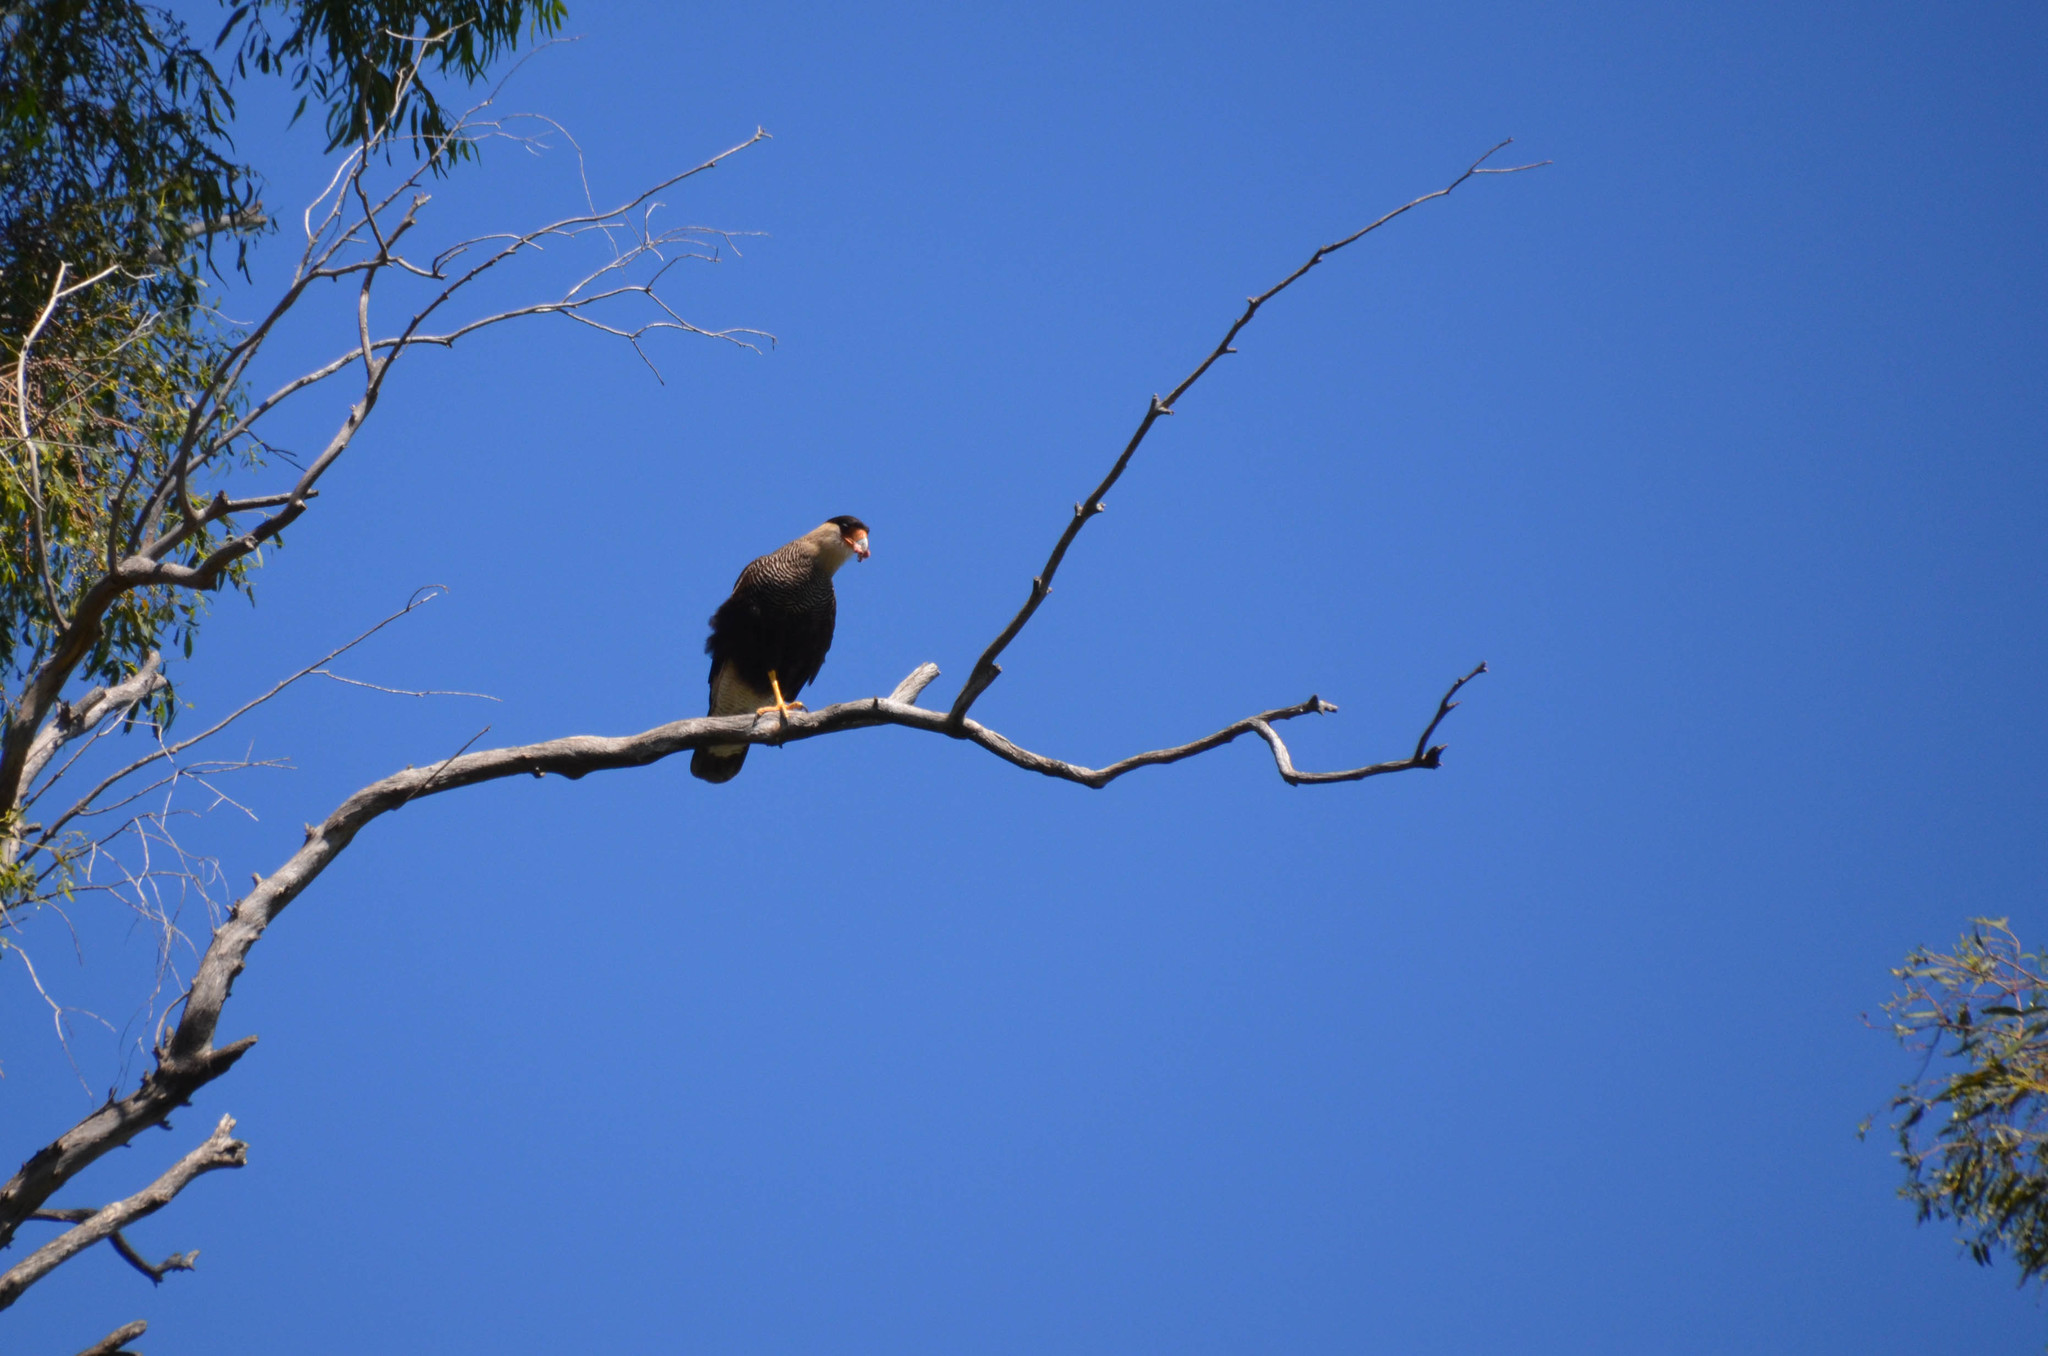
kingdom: Animalia
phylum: Chordata
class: Aves
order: Falconiformes
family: Falconidae
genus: Caracara
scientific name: Caracara plancus
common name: Southern caracara
